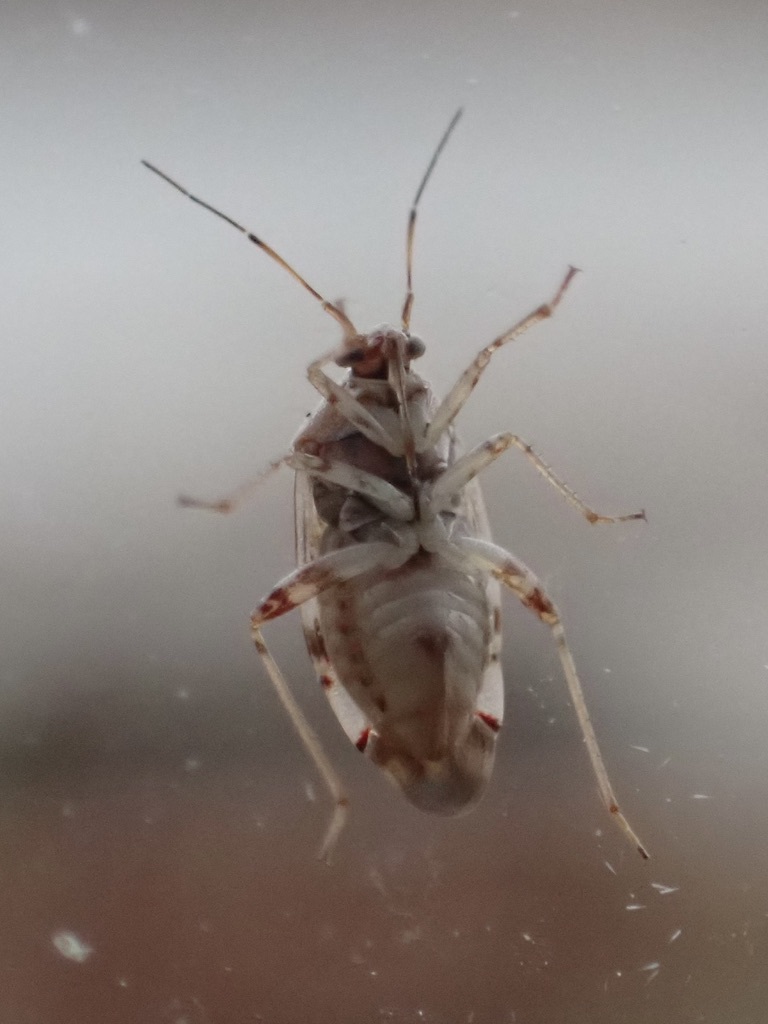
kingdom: Animalia
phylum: Arthropoda
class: Insecta
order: Psocodea
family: Stenopsocidae
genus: Graphopsocus
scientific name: Graphopsocus cruciatus
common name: Lizard bark louse
